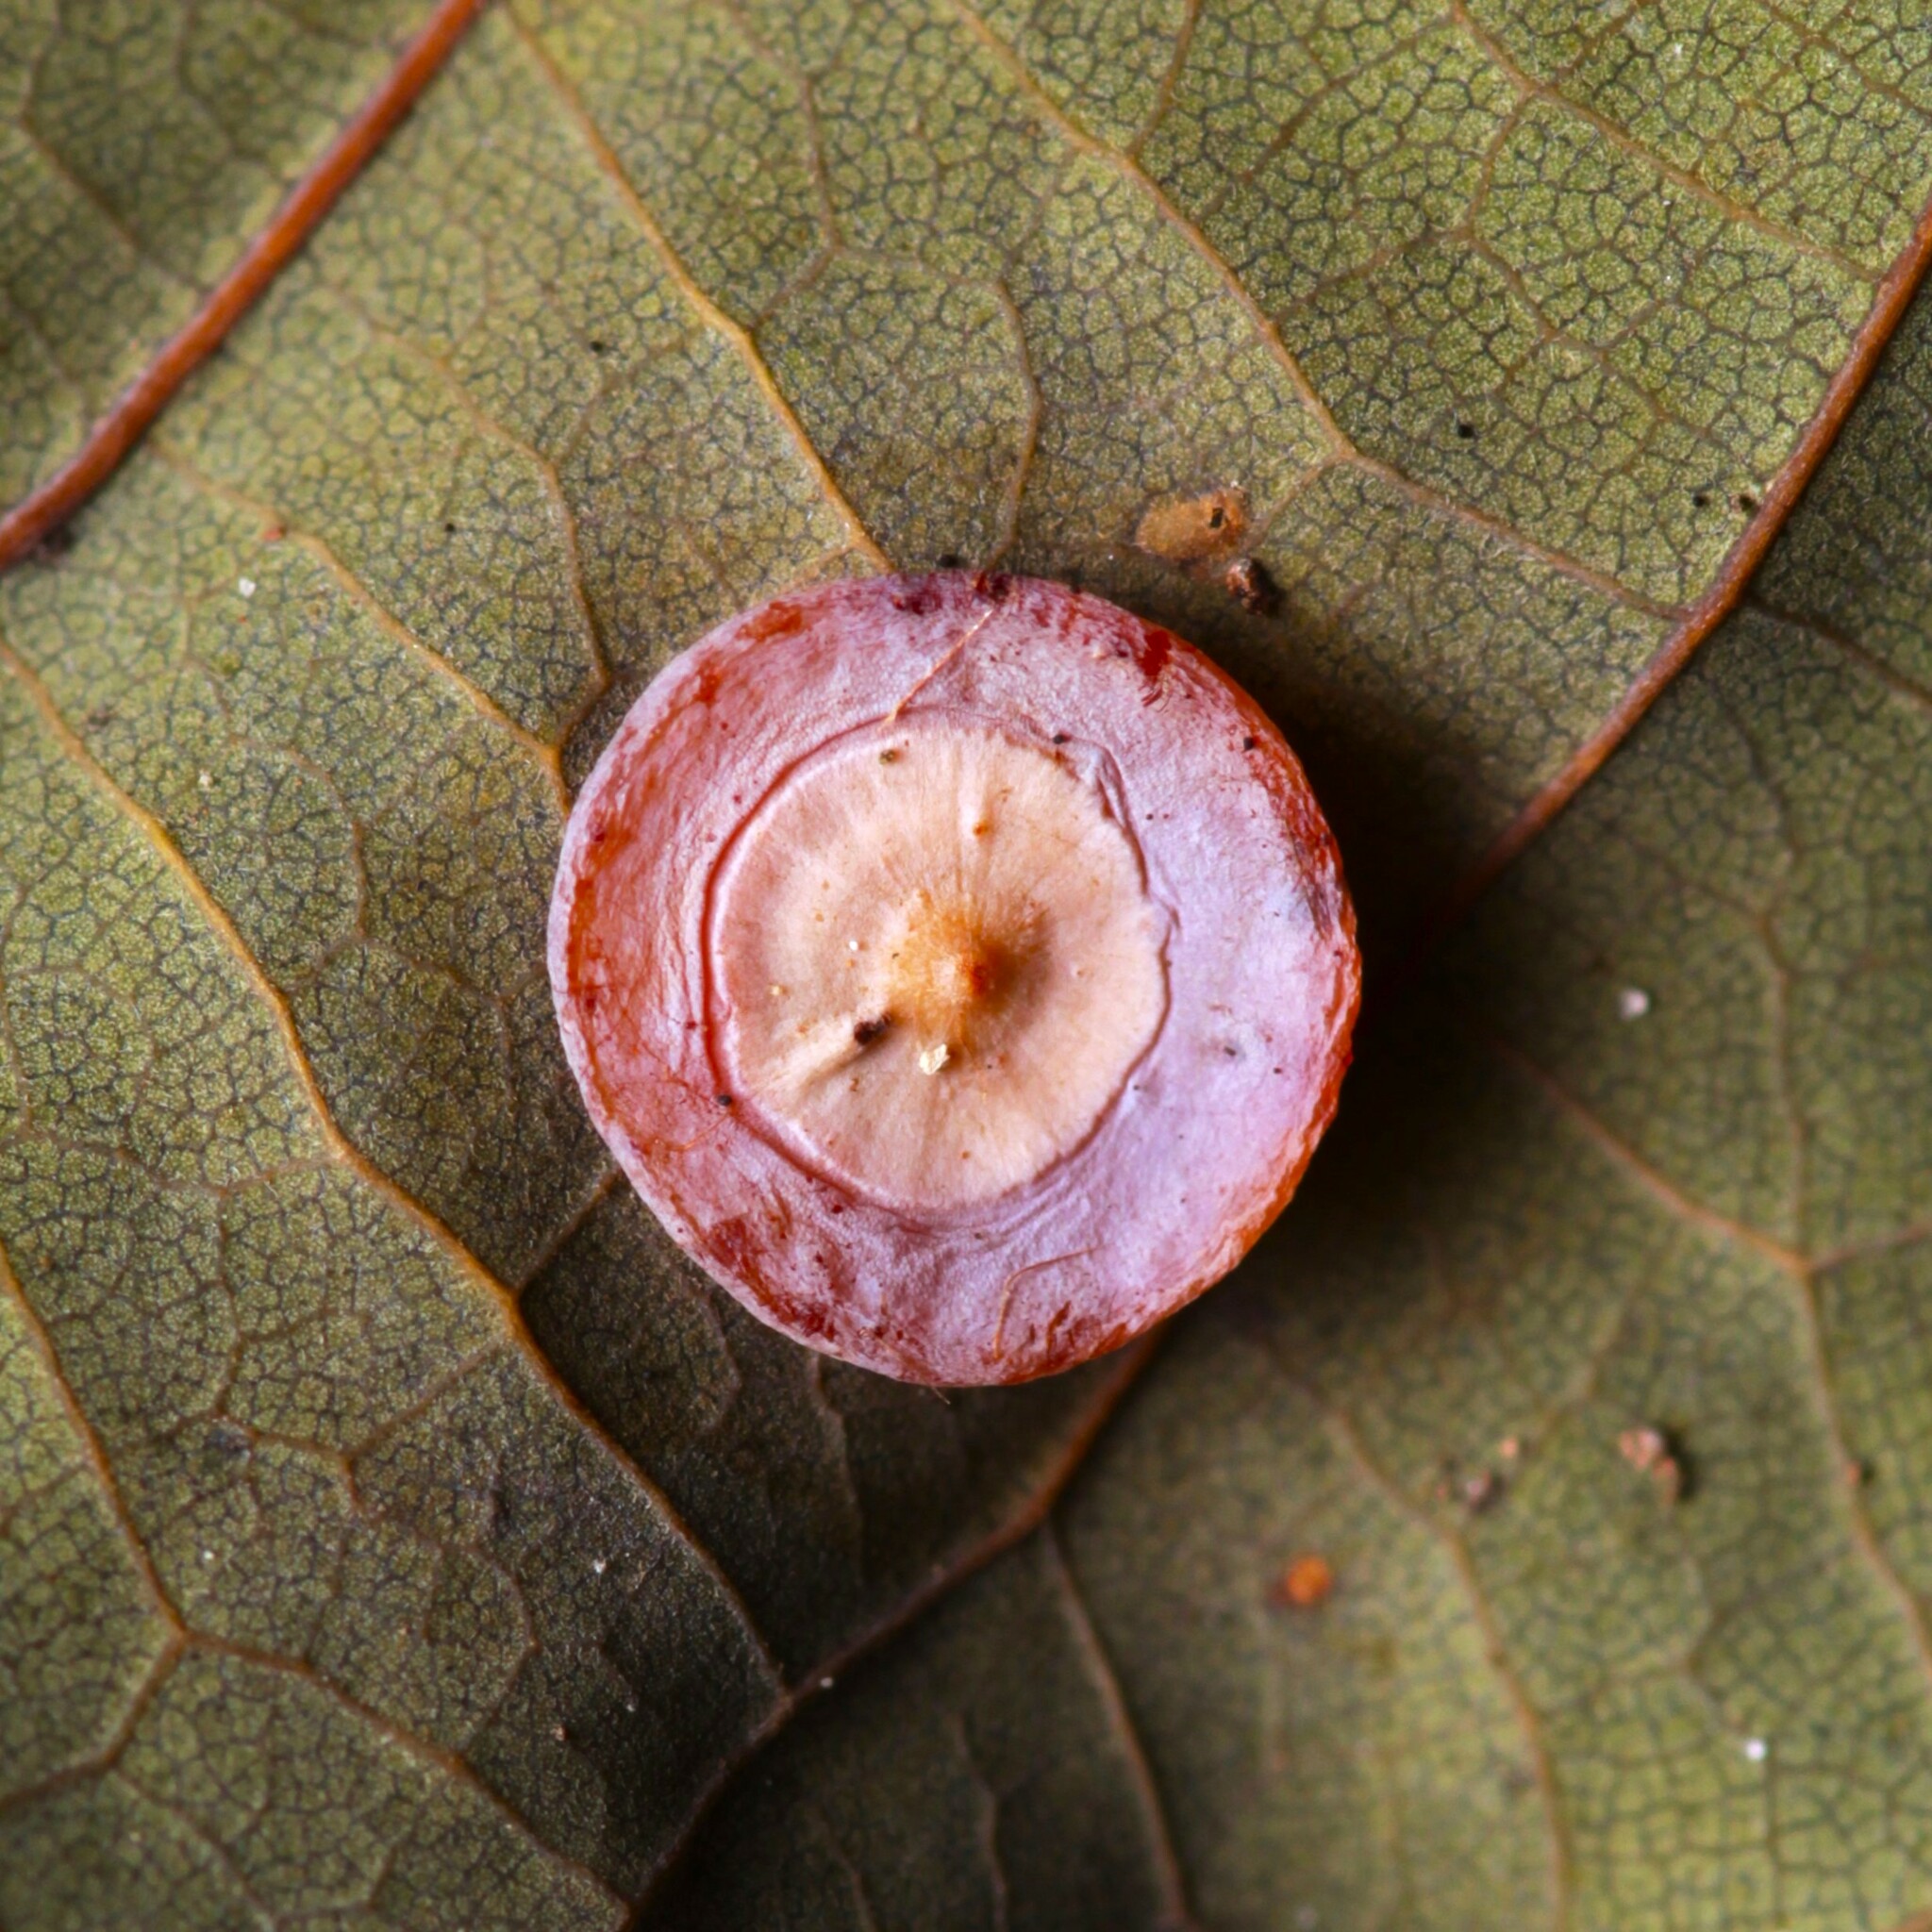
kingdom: Animalia
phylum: Arthropoda
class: Insecta
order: Hymenoptera
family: Cynipidae
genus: Phylloteras
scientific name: Phylloteras poculum
